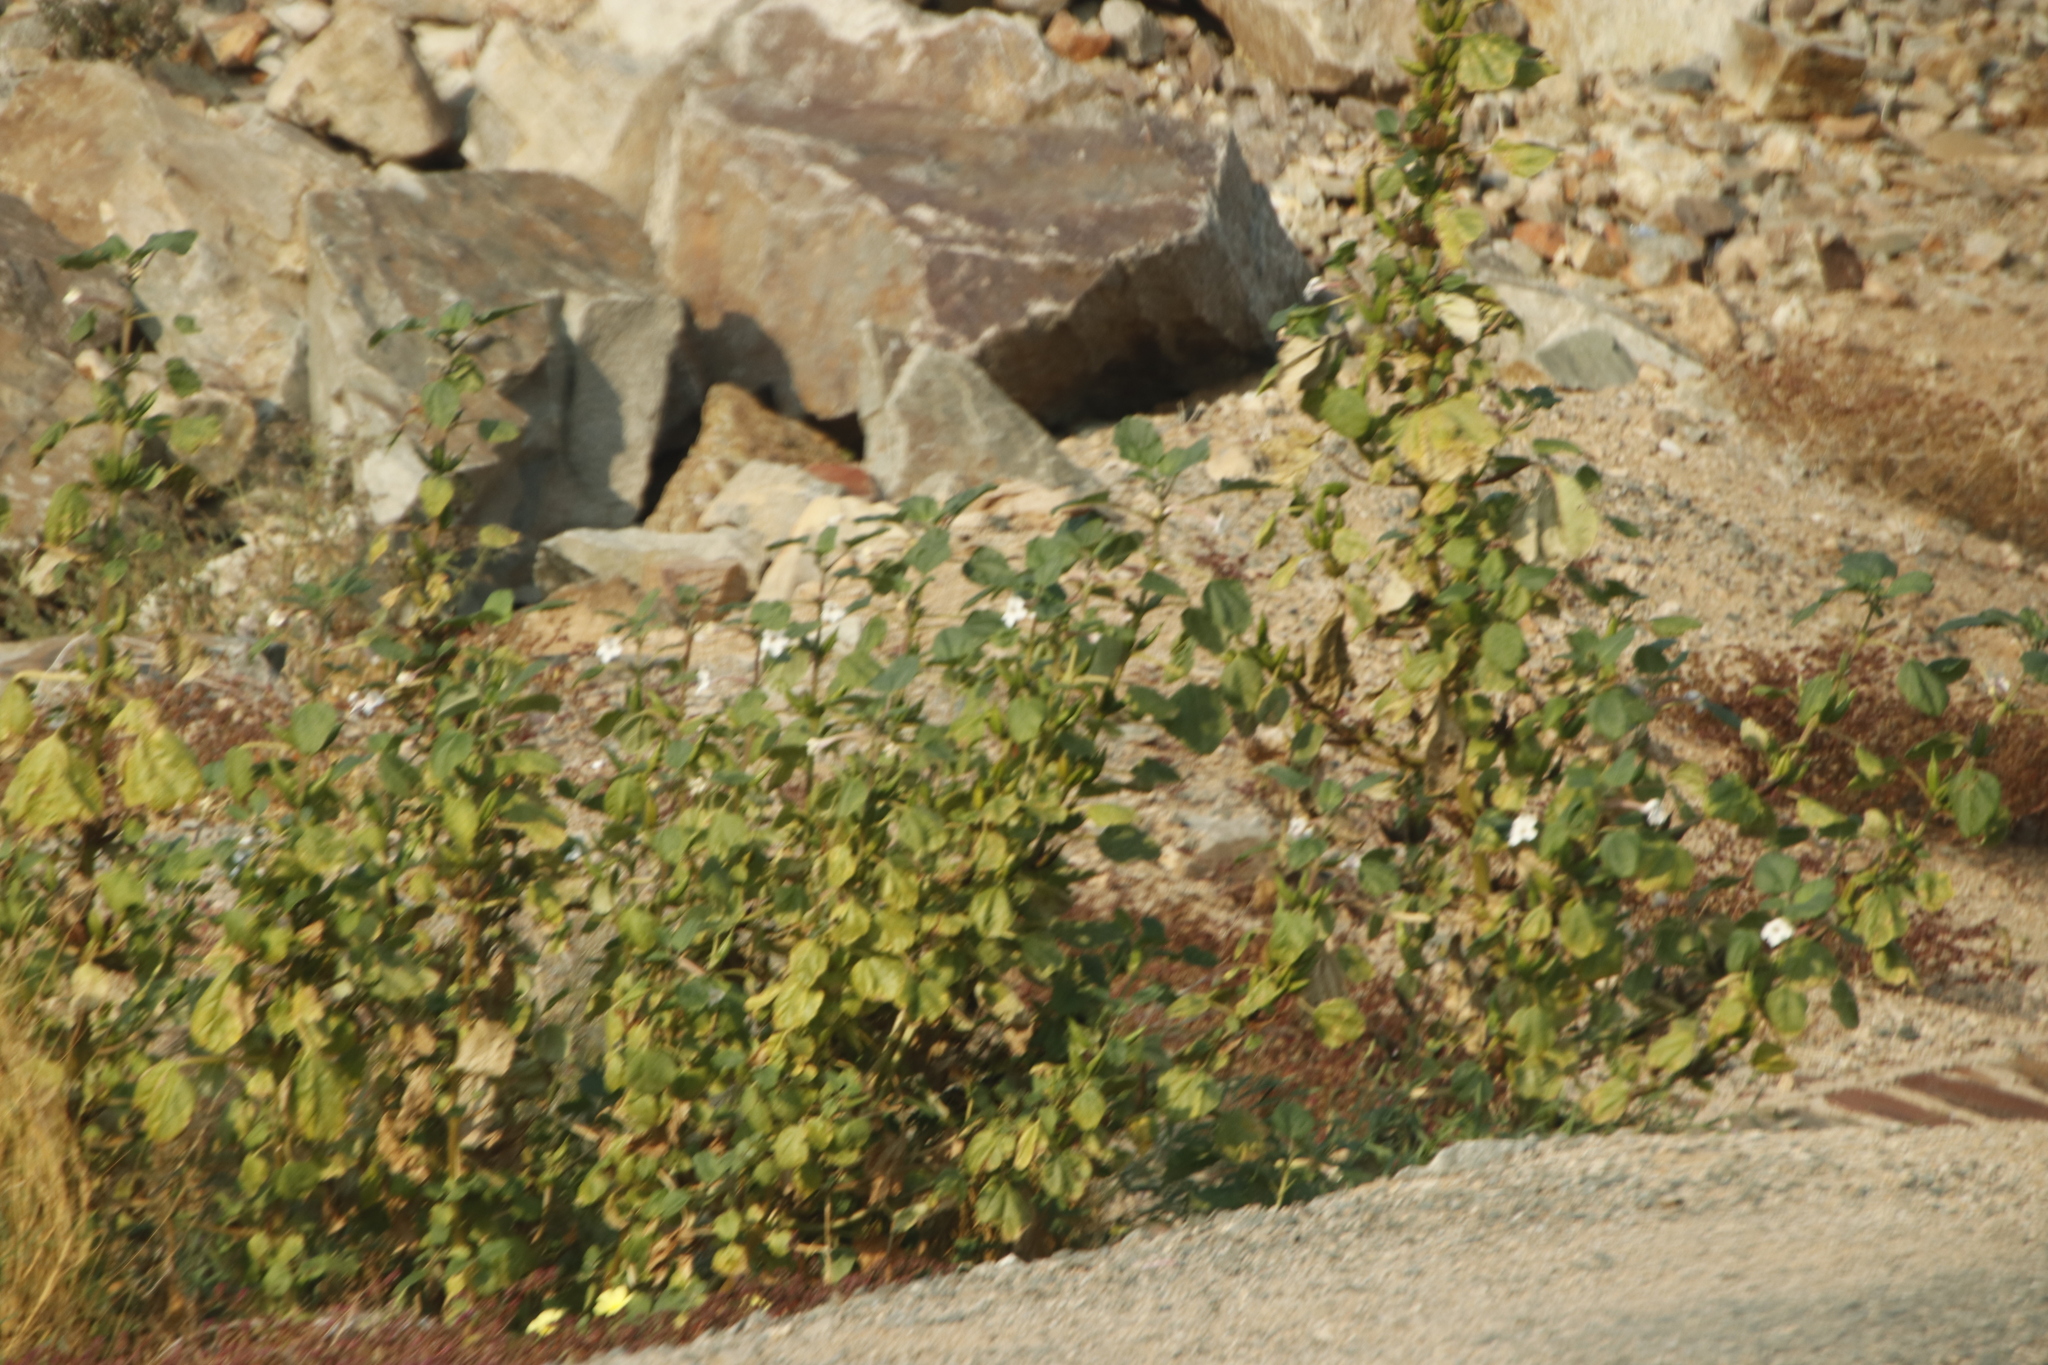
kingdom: Plantae
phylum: Tracheophyta
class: Magnoliopsida
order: Lamiales
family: Pedaliaceae
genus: Rogeria
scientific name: Rogeria longiflora
